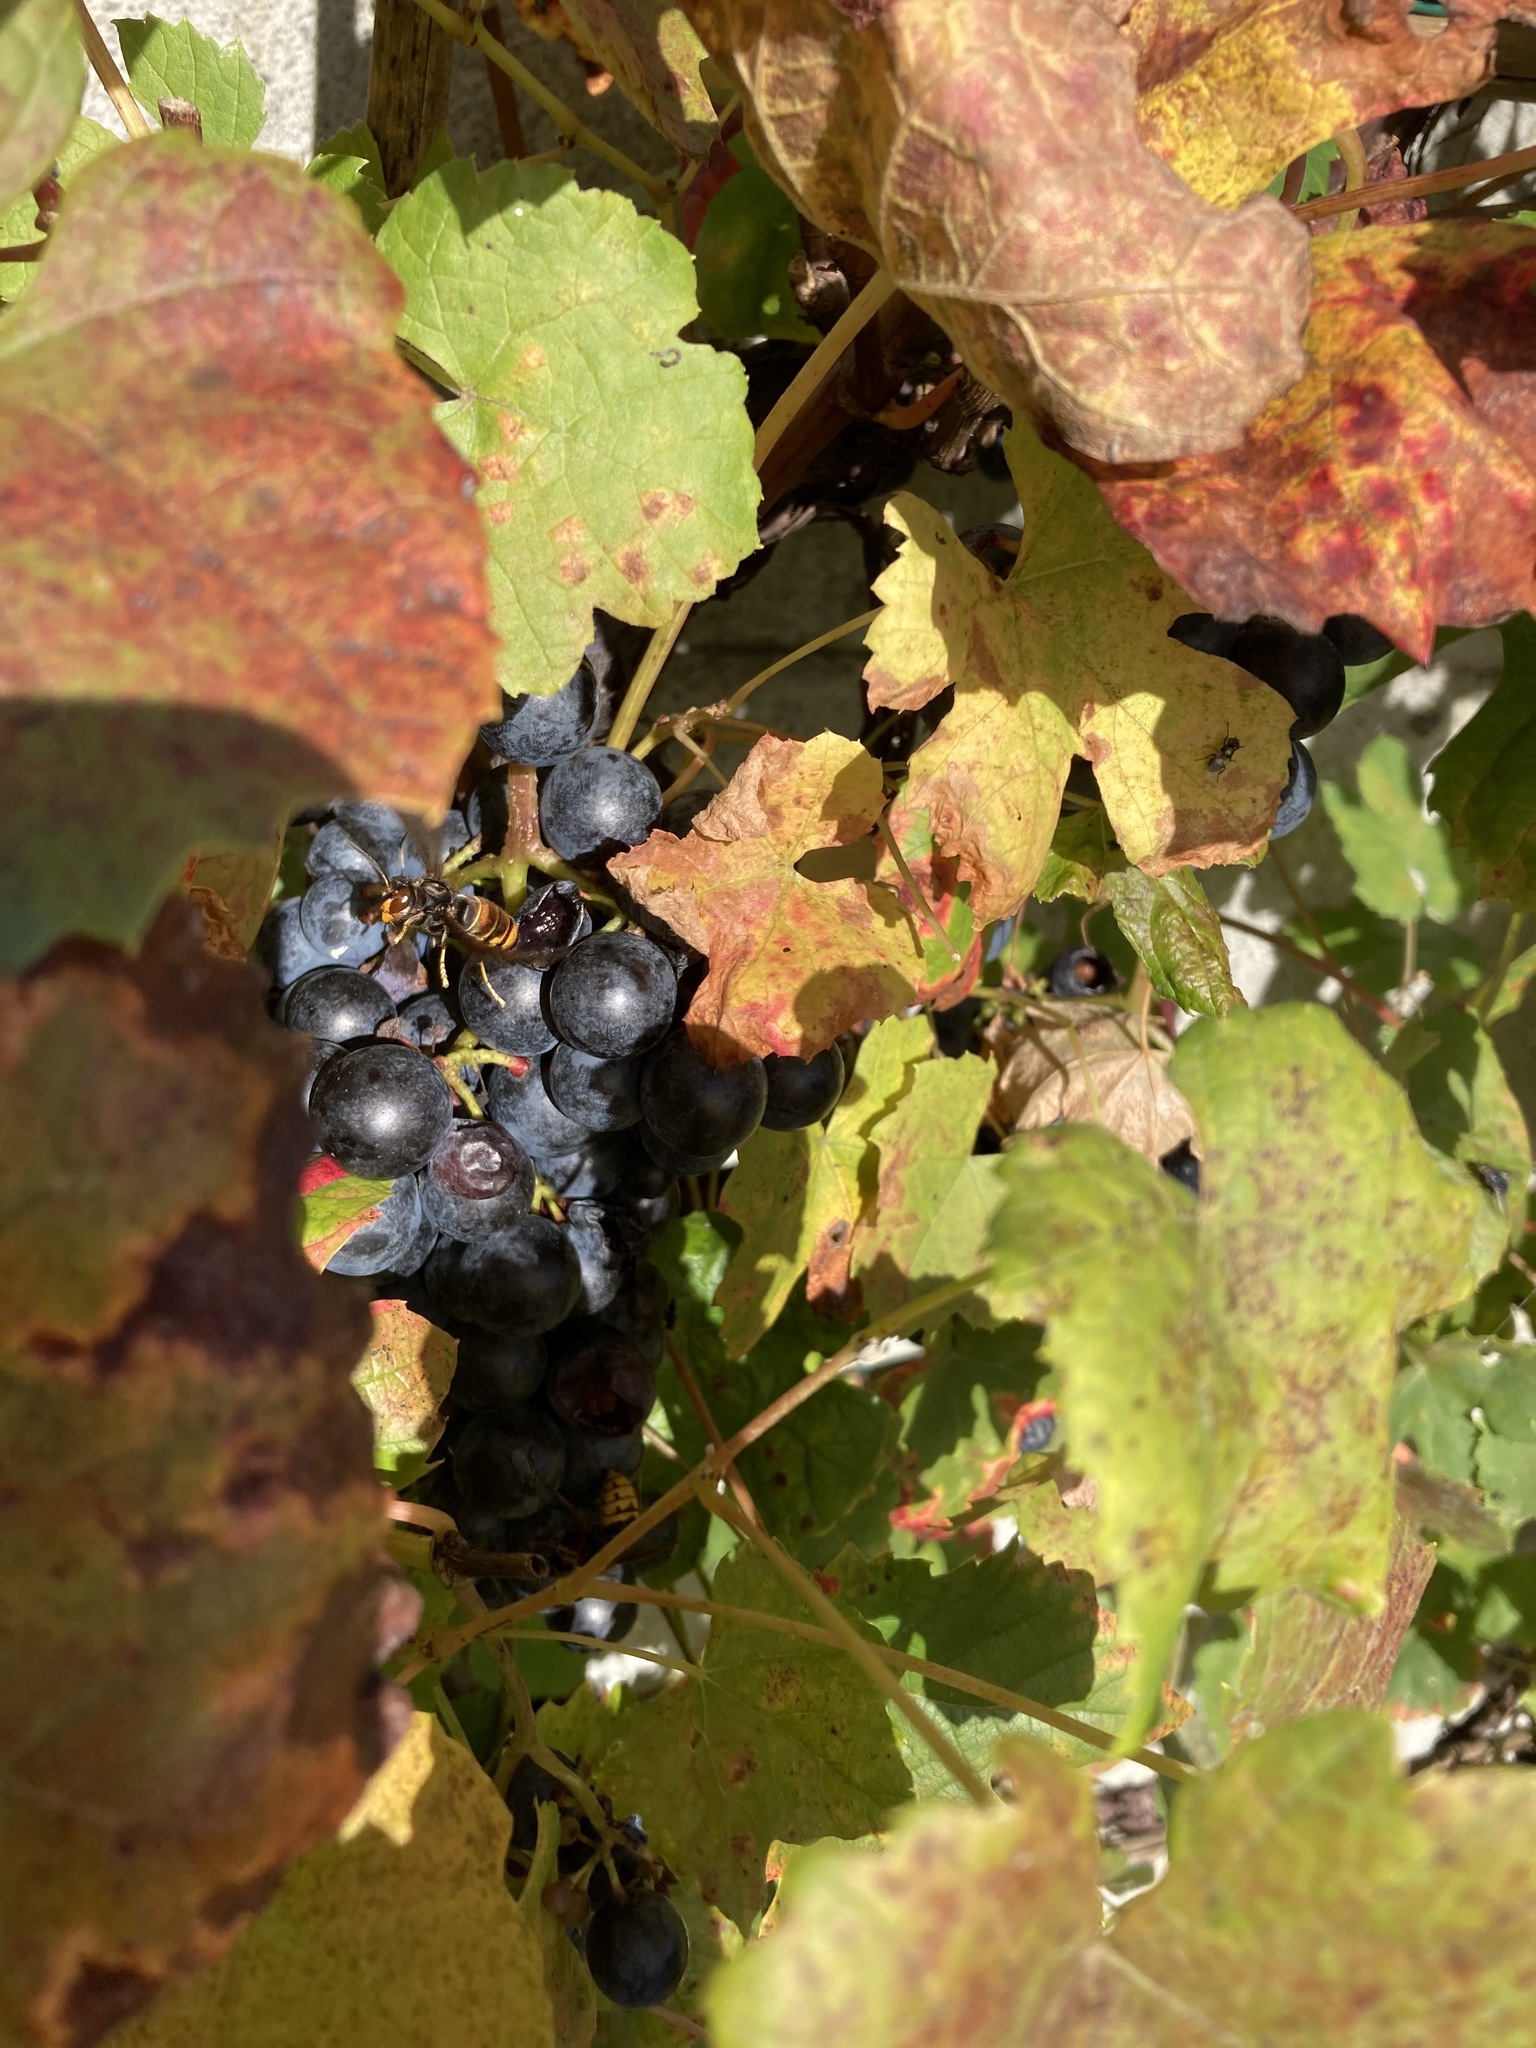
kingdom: Animalia
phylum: Arthropoda
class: Insecta
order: Hymenoptera
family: Vespidae
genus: Vespa
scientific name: Vespa velutina
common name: Asian hornet
